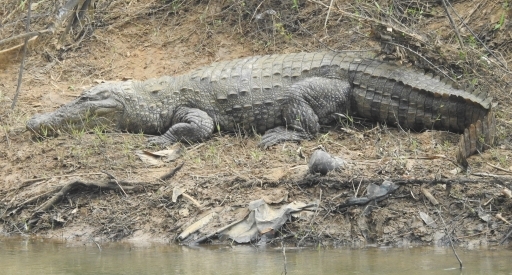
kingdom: Animalia
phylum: Chordata
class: Crocodylia
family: Crocodylidae
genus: Crocodylus
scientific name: Crocodylus palustris
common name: Mugger crocodile
